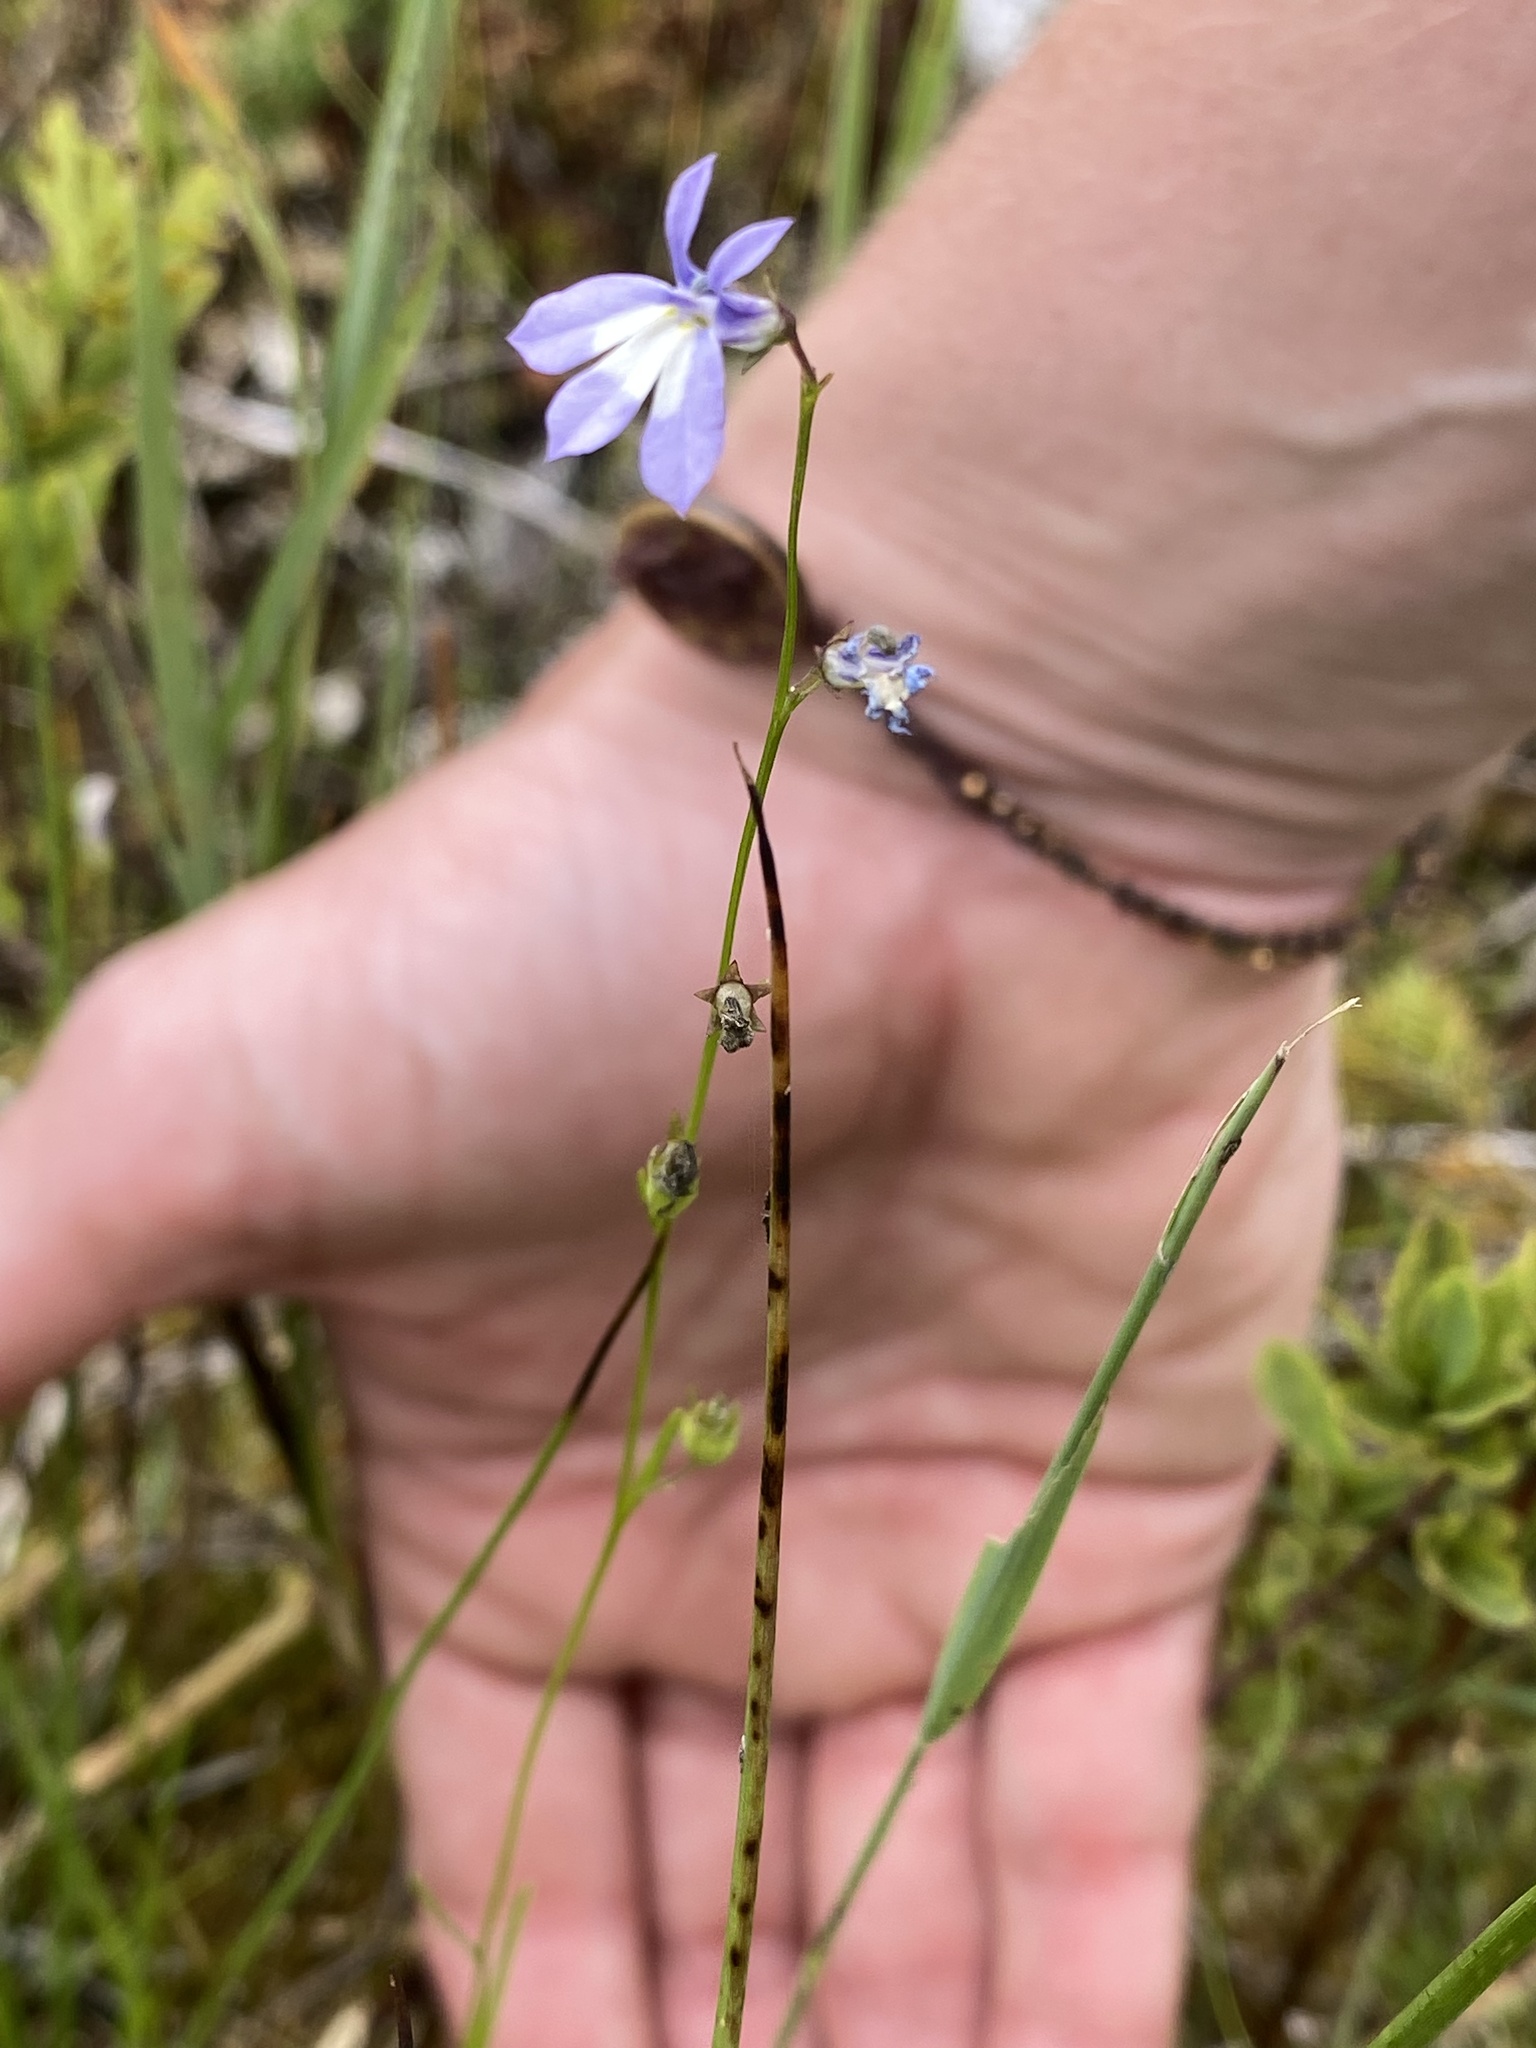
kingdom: Plantae
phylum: Tracheophyta
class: Magnoliopsida
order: Asterales
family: Campanulaceae
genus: Lobelia
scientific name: Lobelia kalmii
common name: Kalm's lobelia
